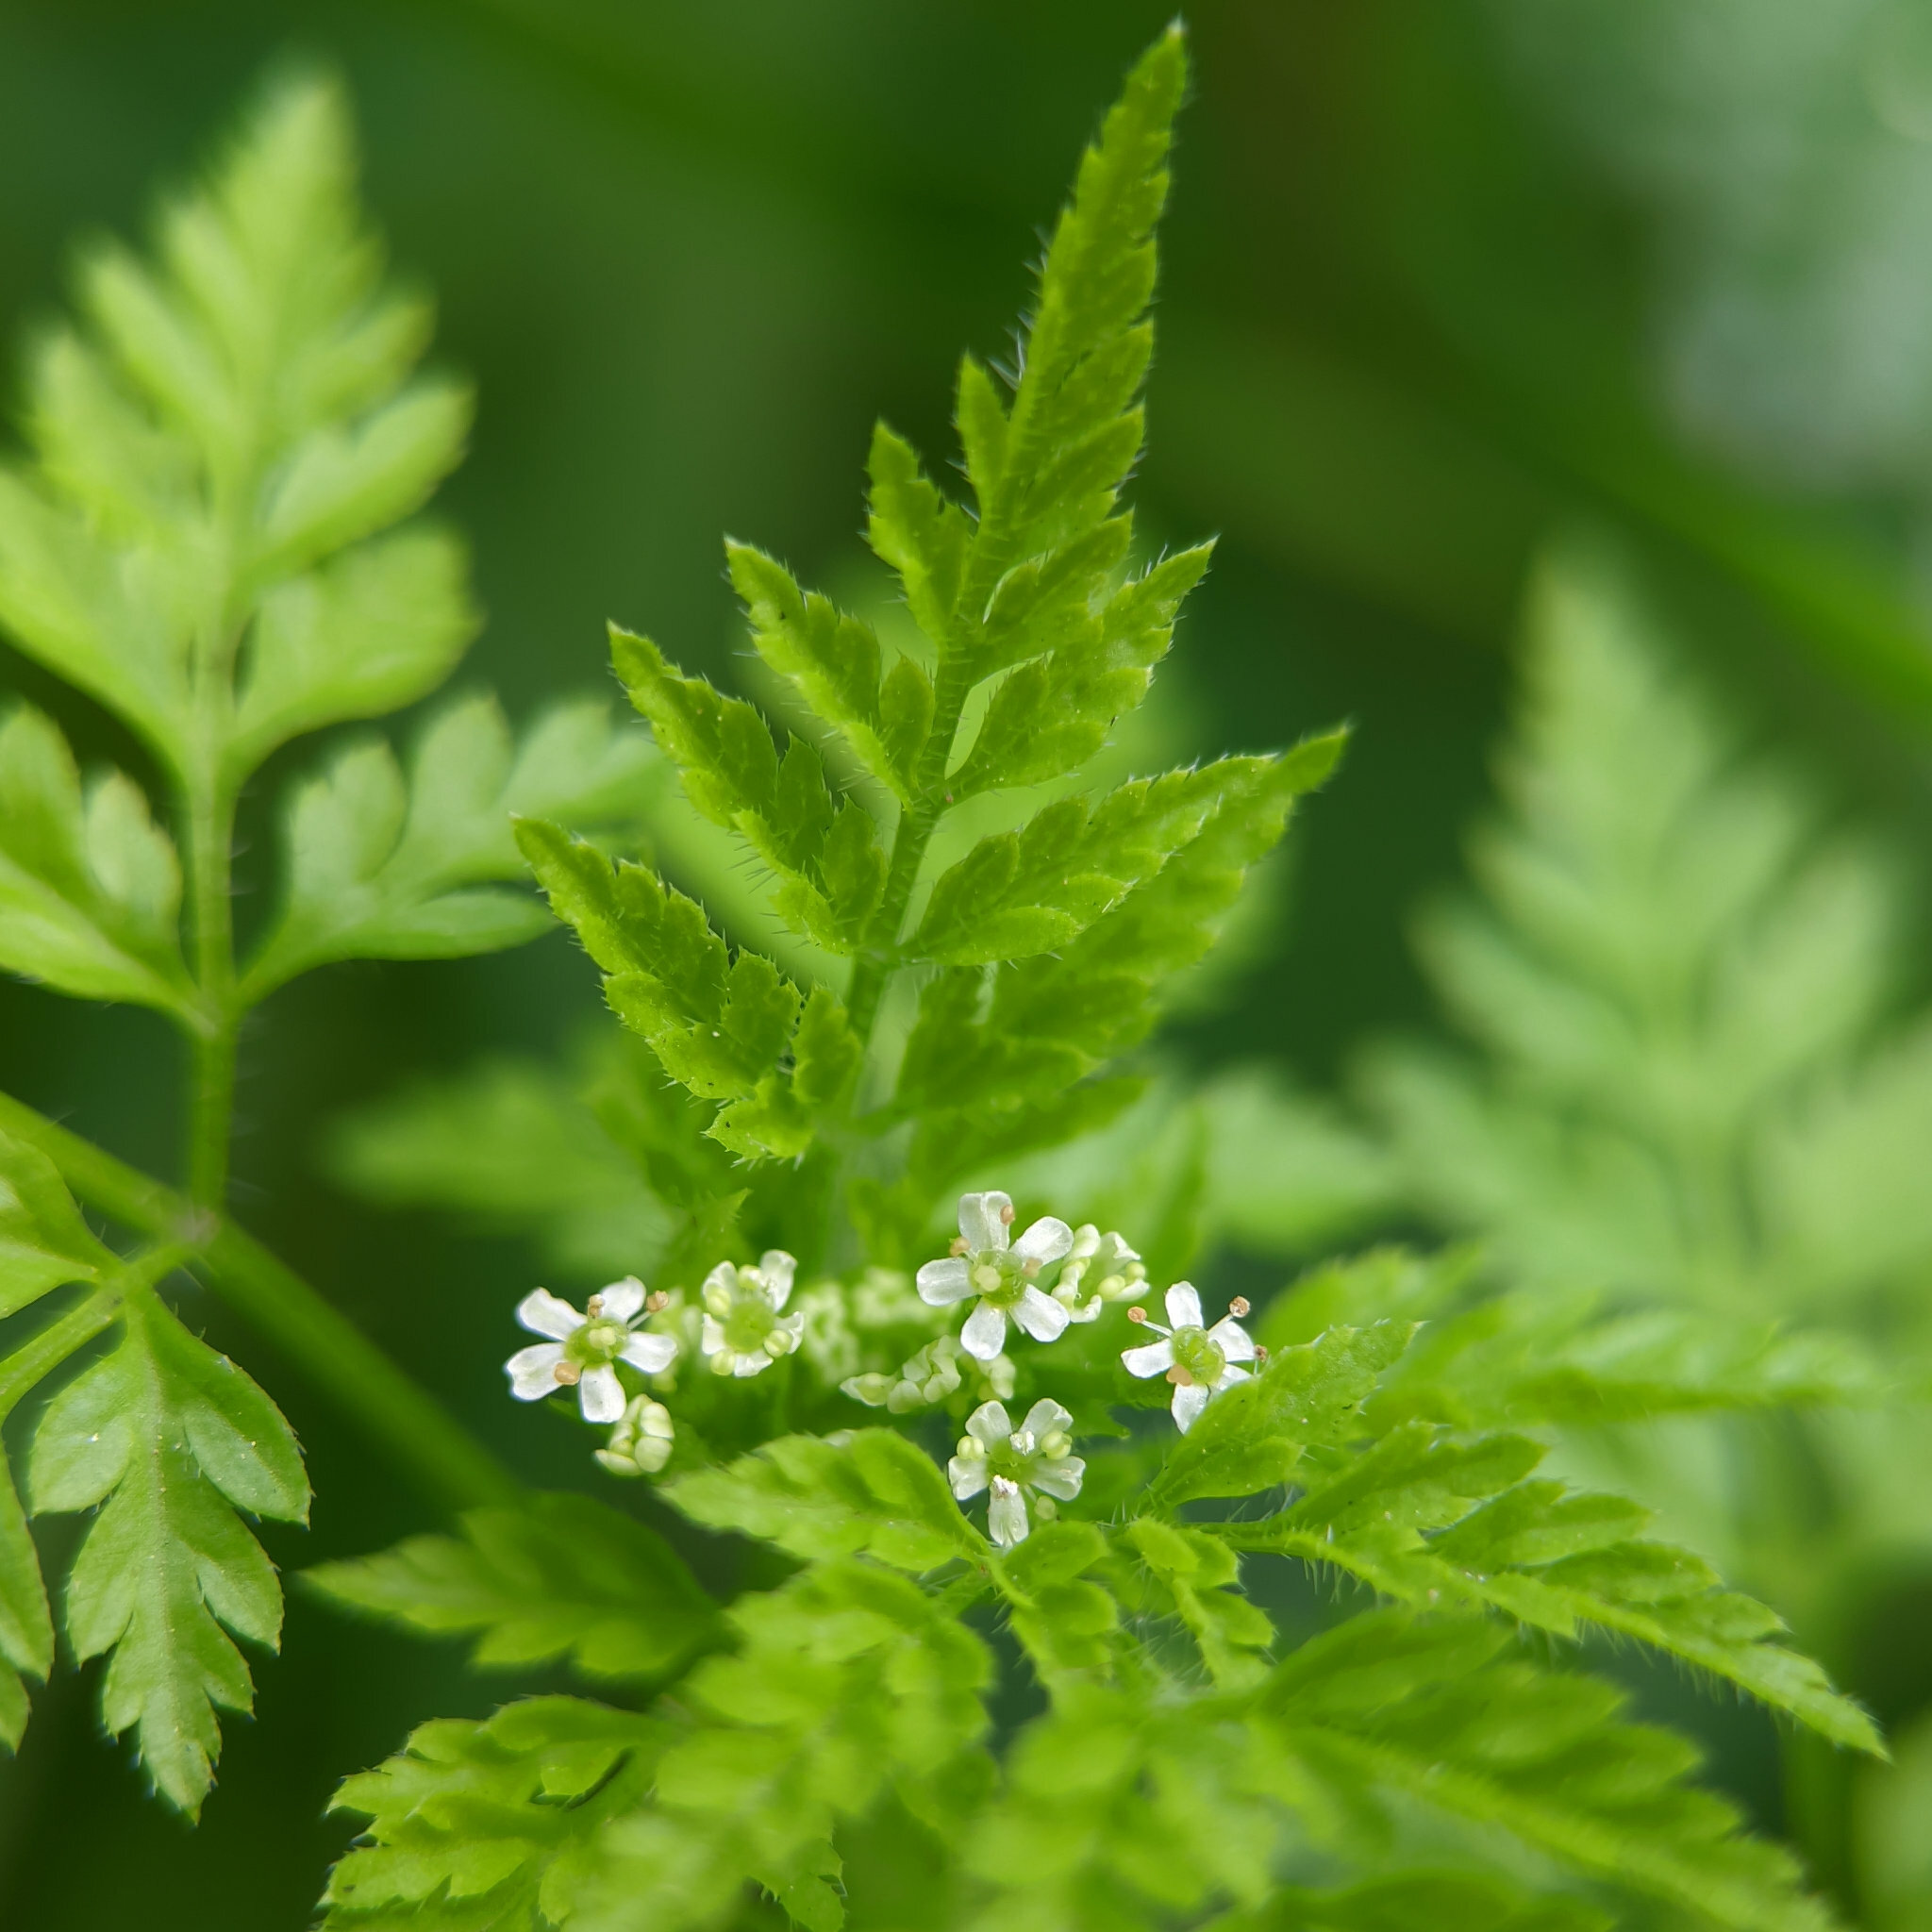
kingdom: Plantae
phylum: Tracheophyta
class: Magnoliopsida
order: Apiales
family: Apiaceae
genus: Anthriscus
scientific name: Anthriscus caucalis
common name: Bur chervil
